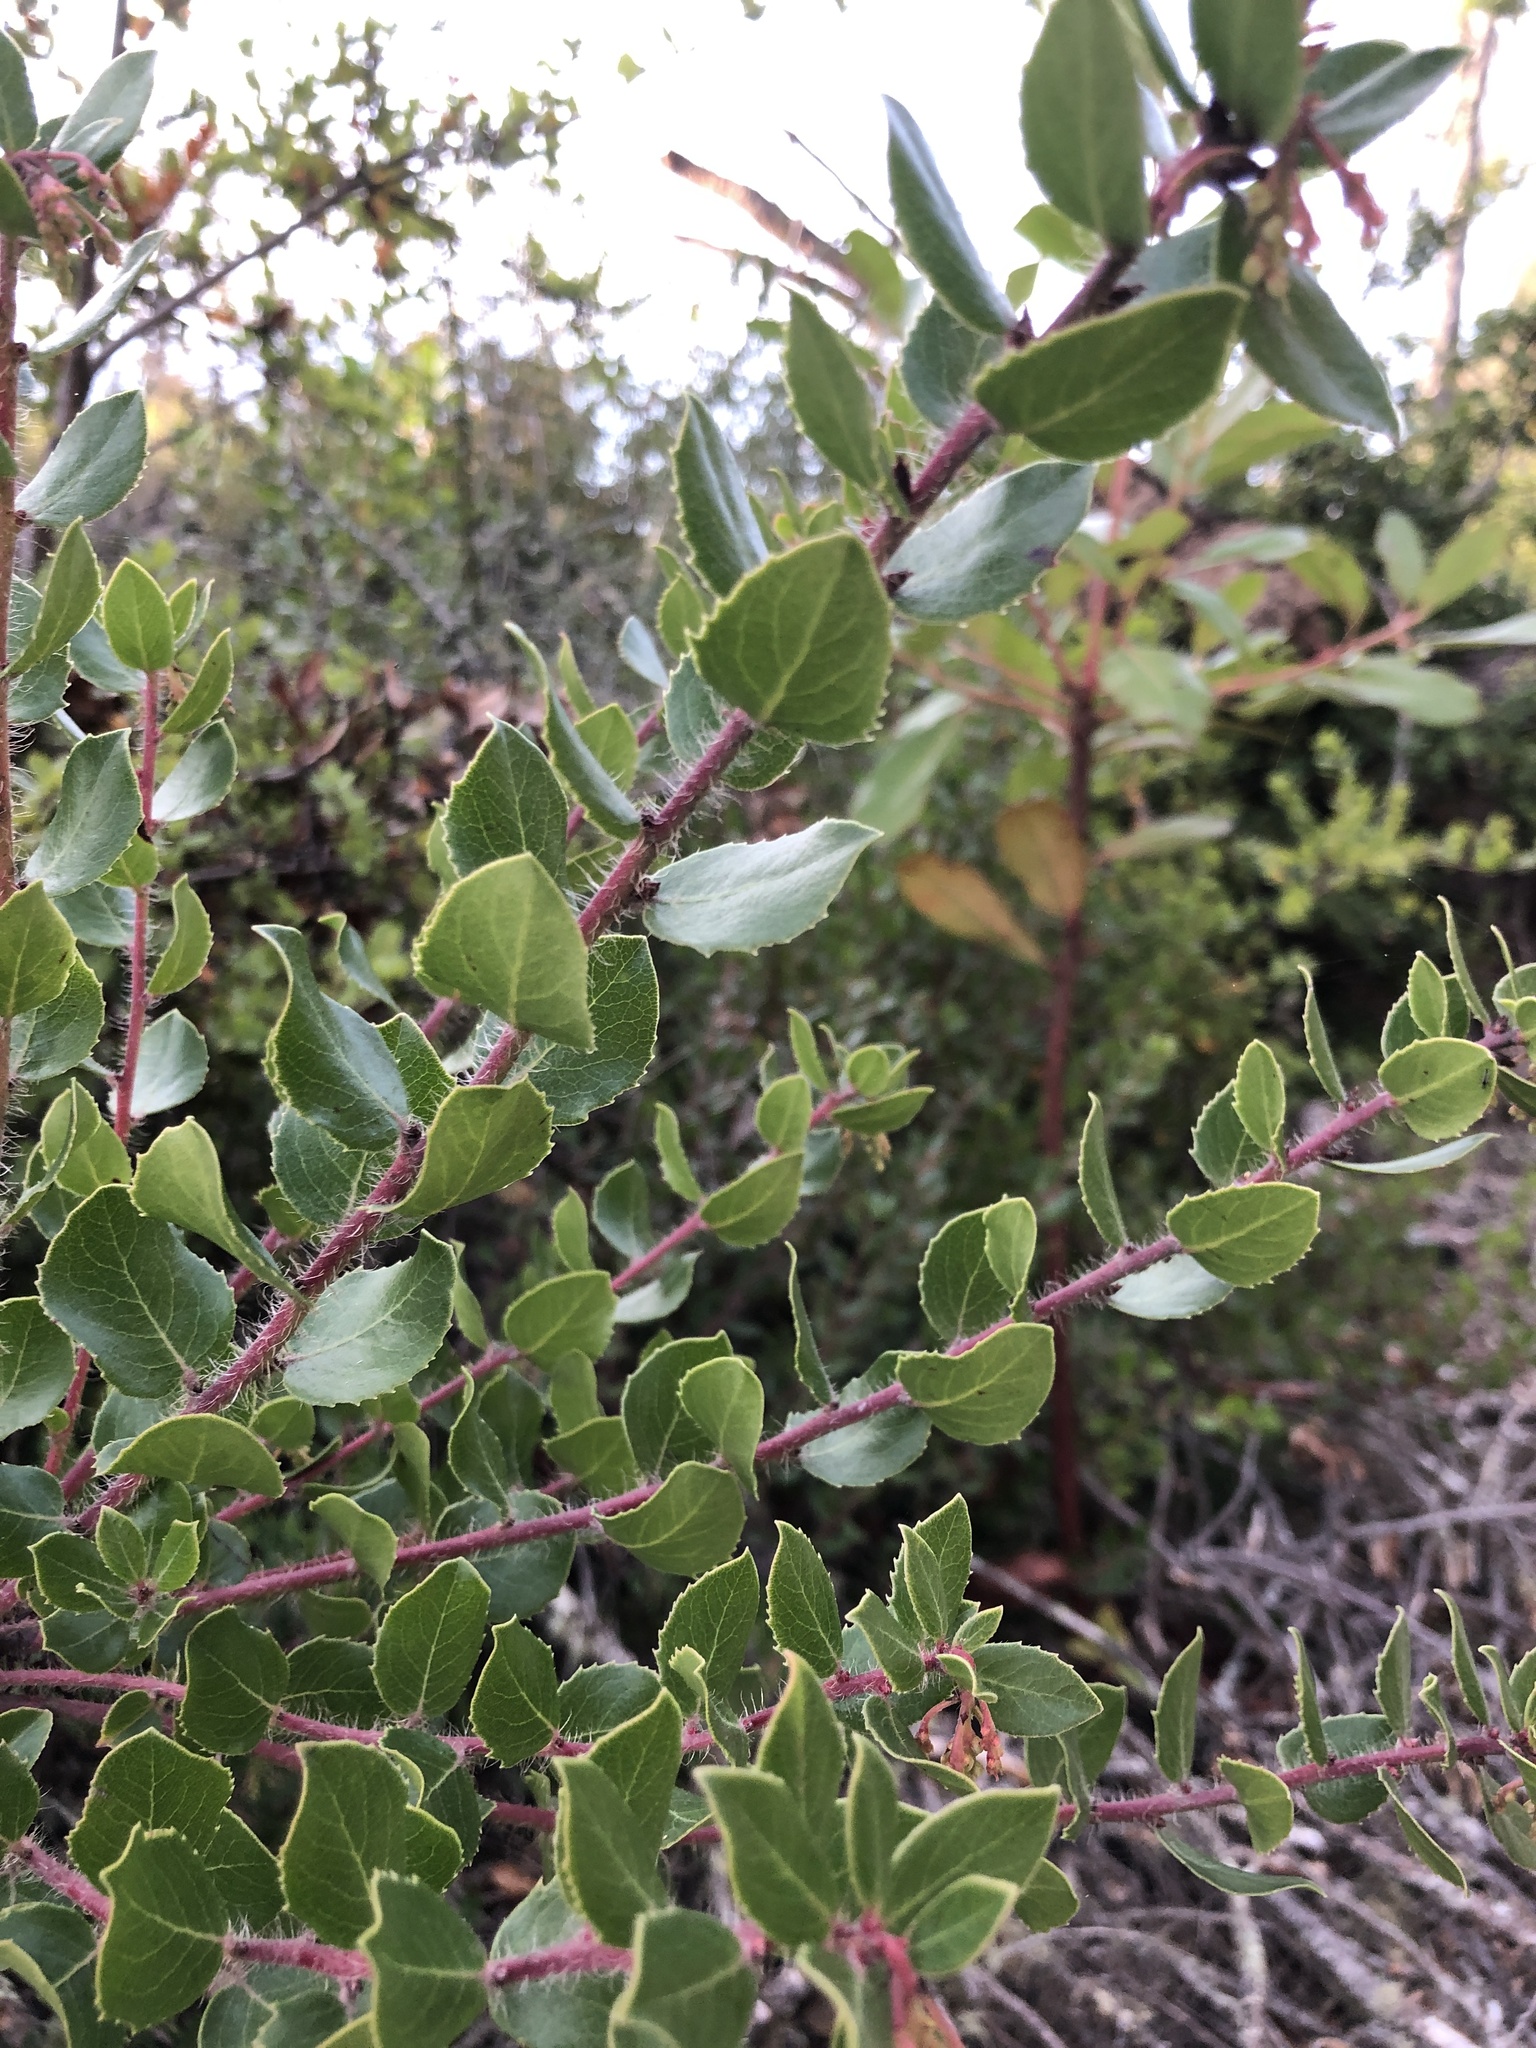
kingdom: Plantae
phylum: Tracheophyta
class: Magnoliopsida
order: Ericales
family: Ericaceae
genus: Arctostaphylos
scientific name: Arctostaphylos nummularia
